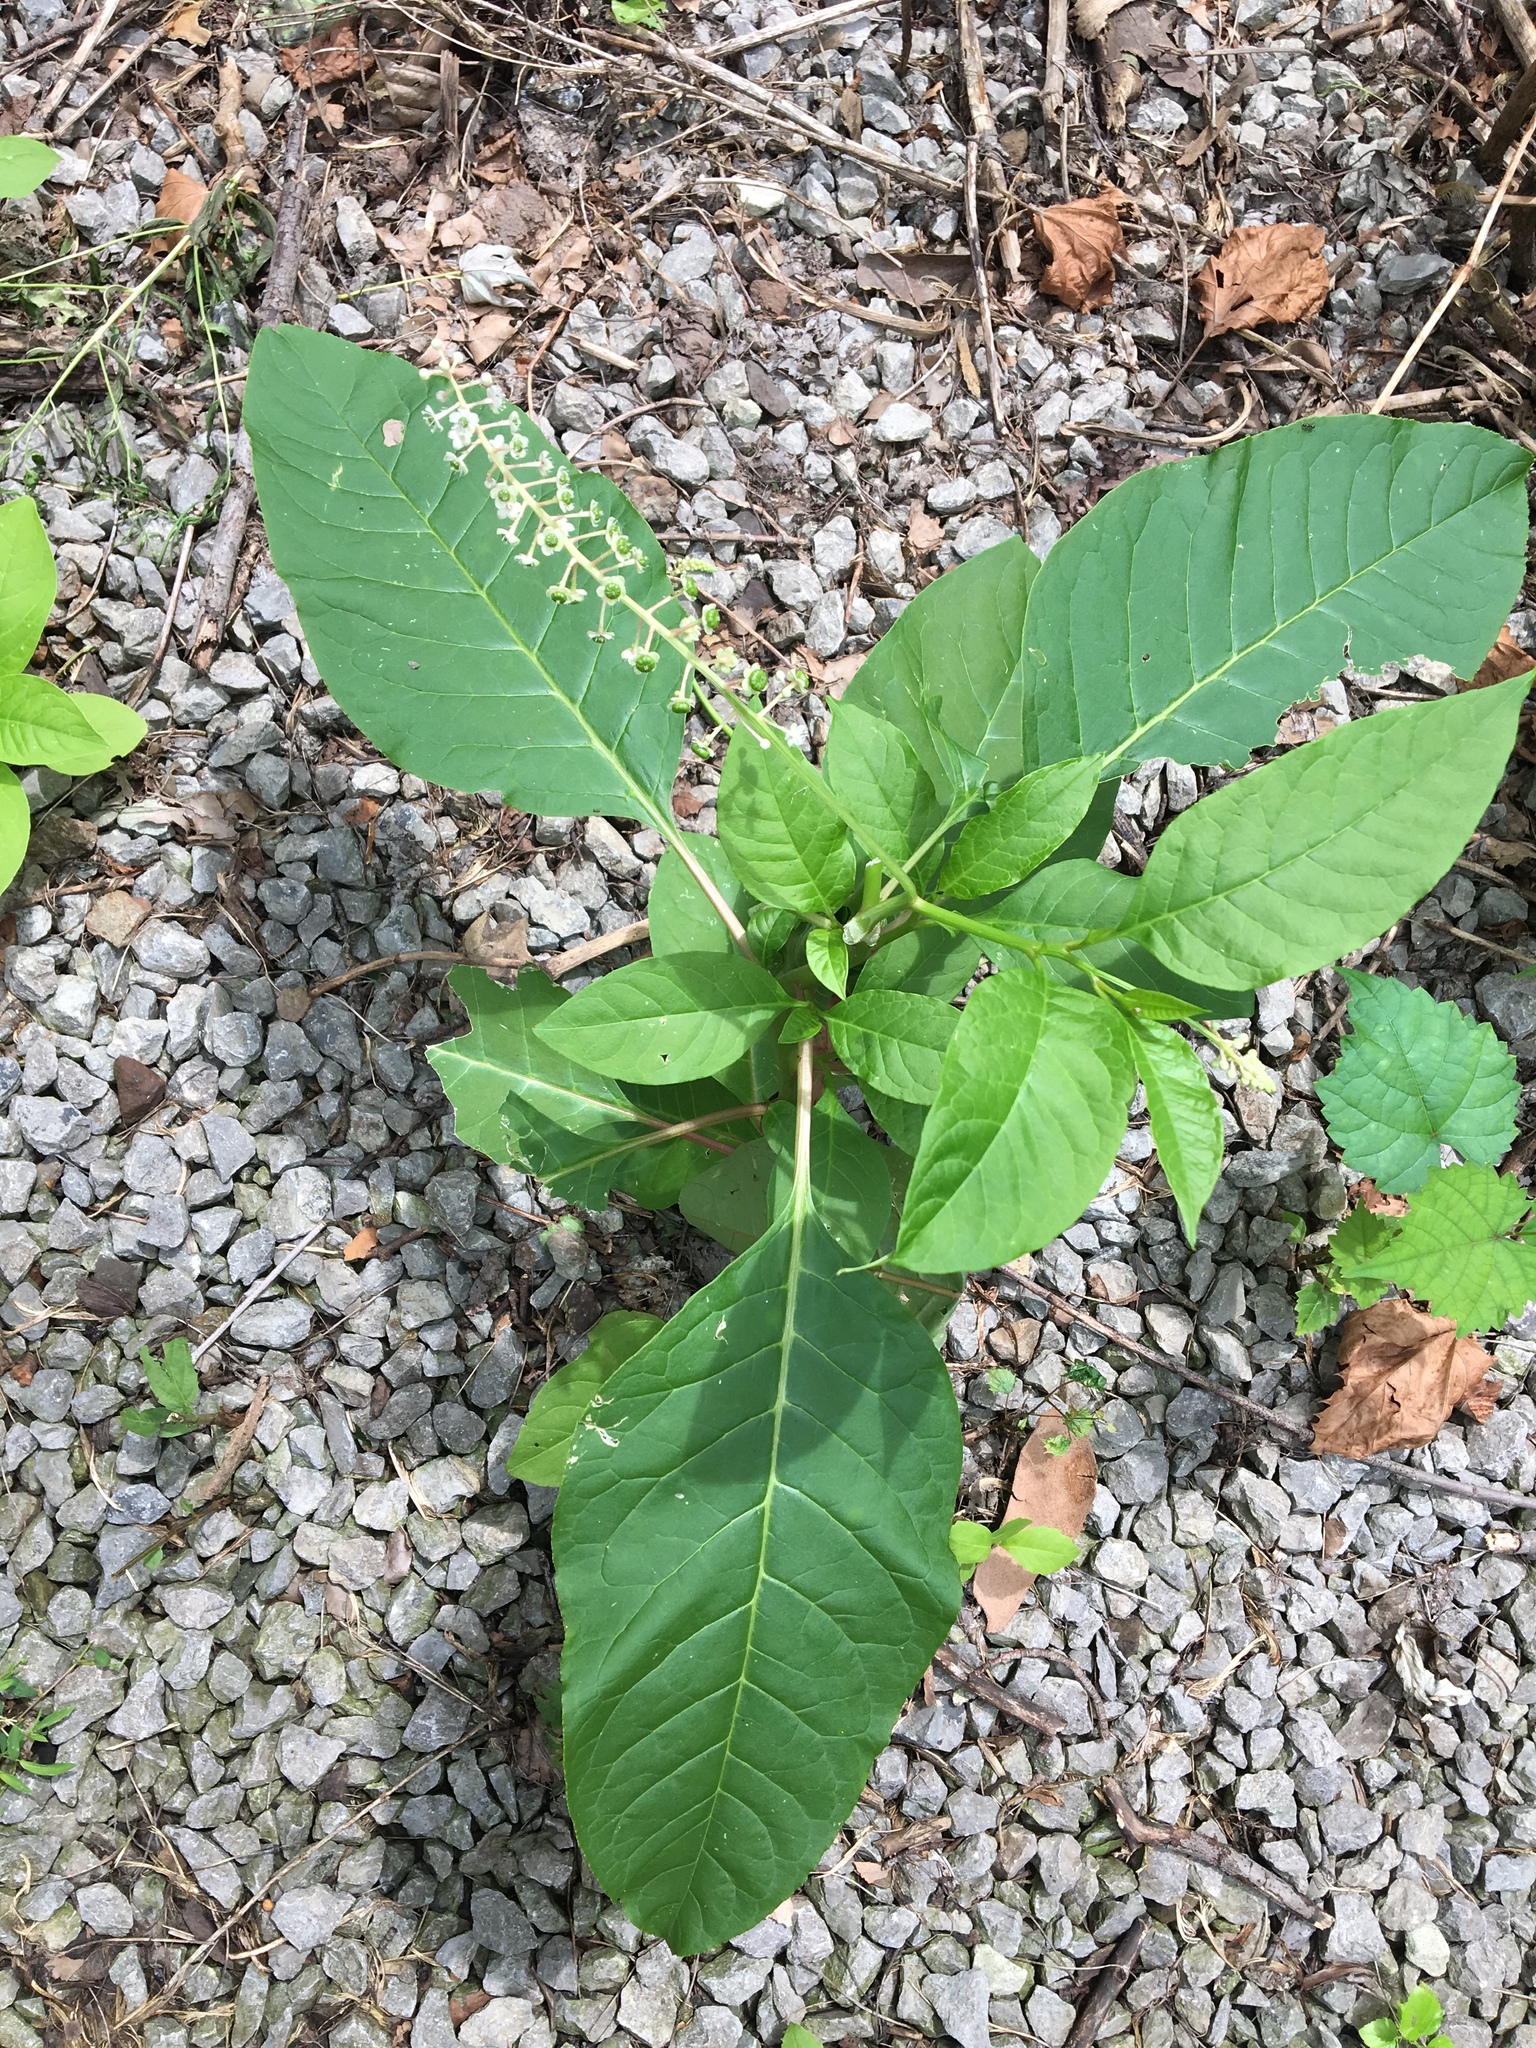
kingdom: Plantae
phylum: Tracheophyta
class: Magnoliopsida
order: Caryophyllales
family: Phytolaccaceae
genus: Phytolacca
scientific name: Phytolacca americana
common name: American pokeweed
